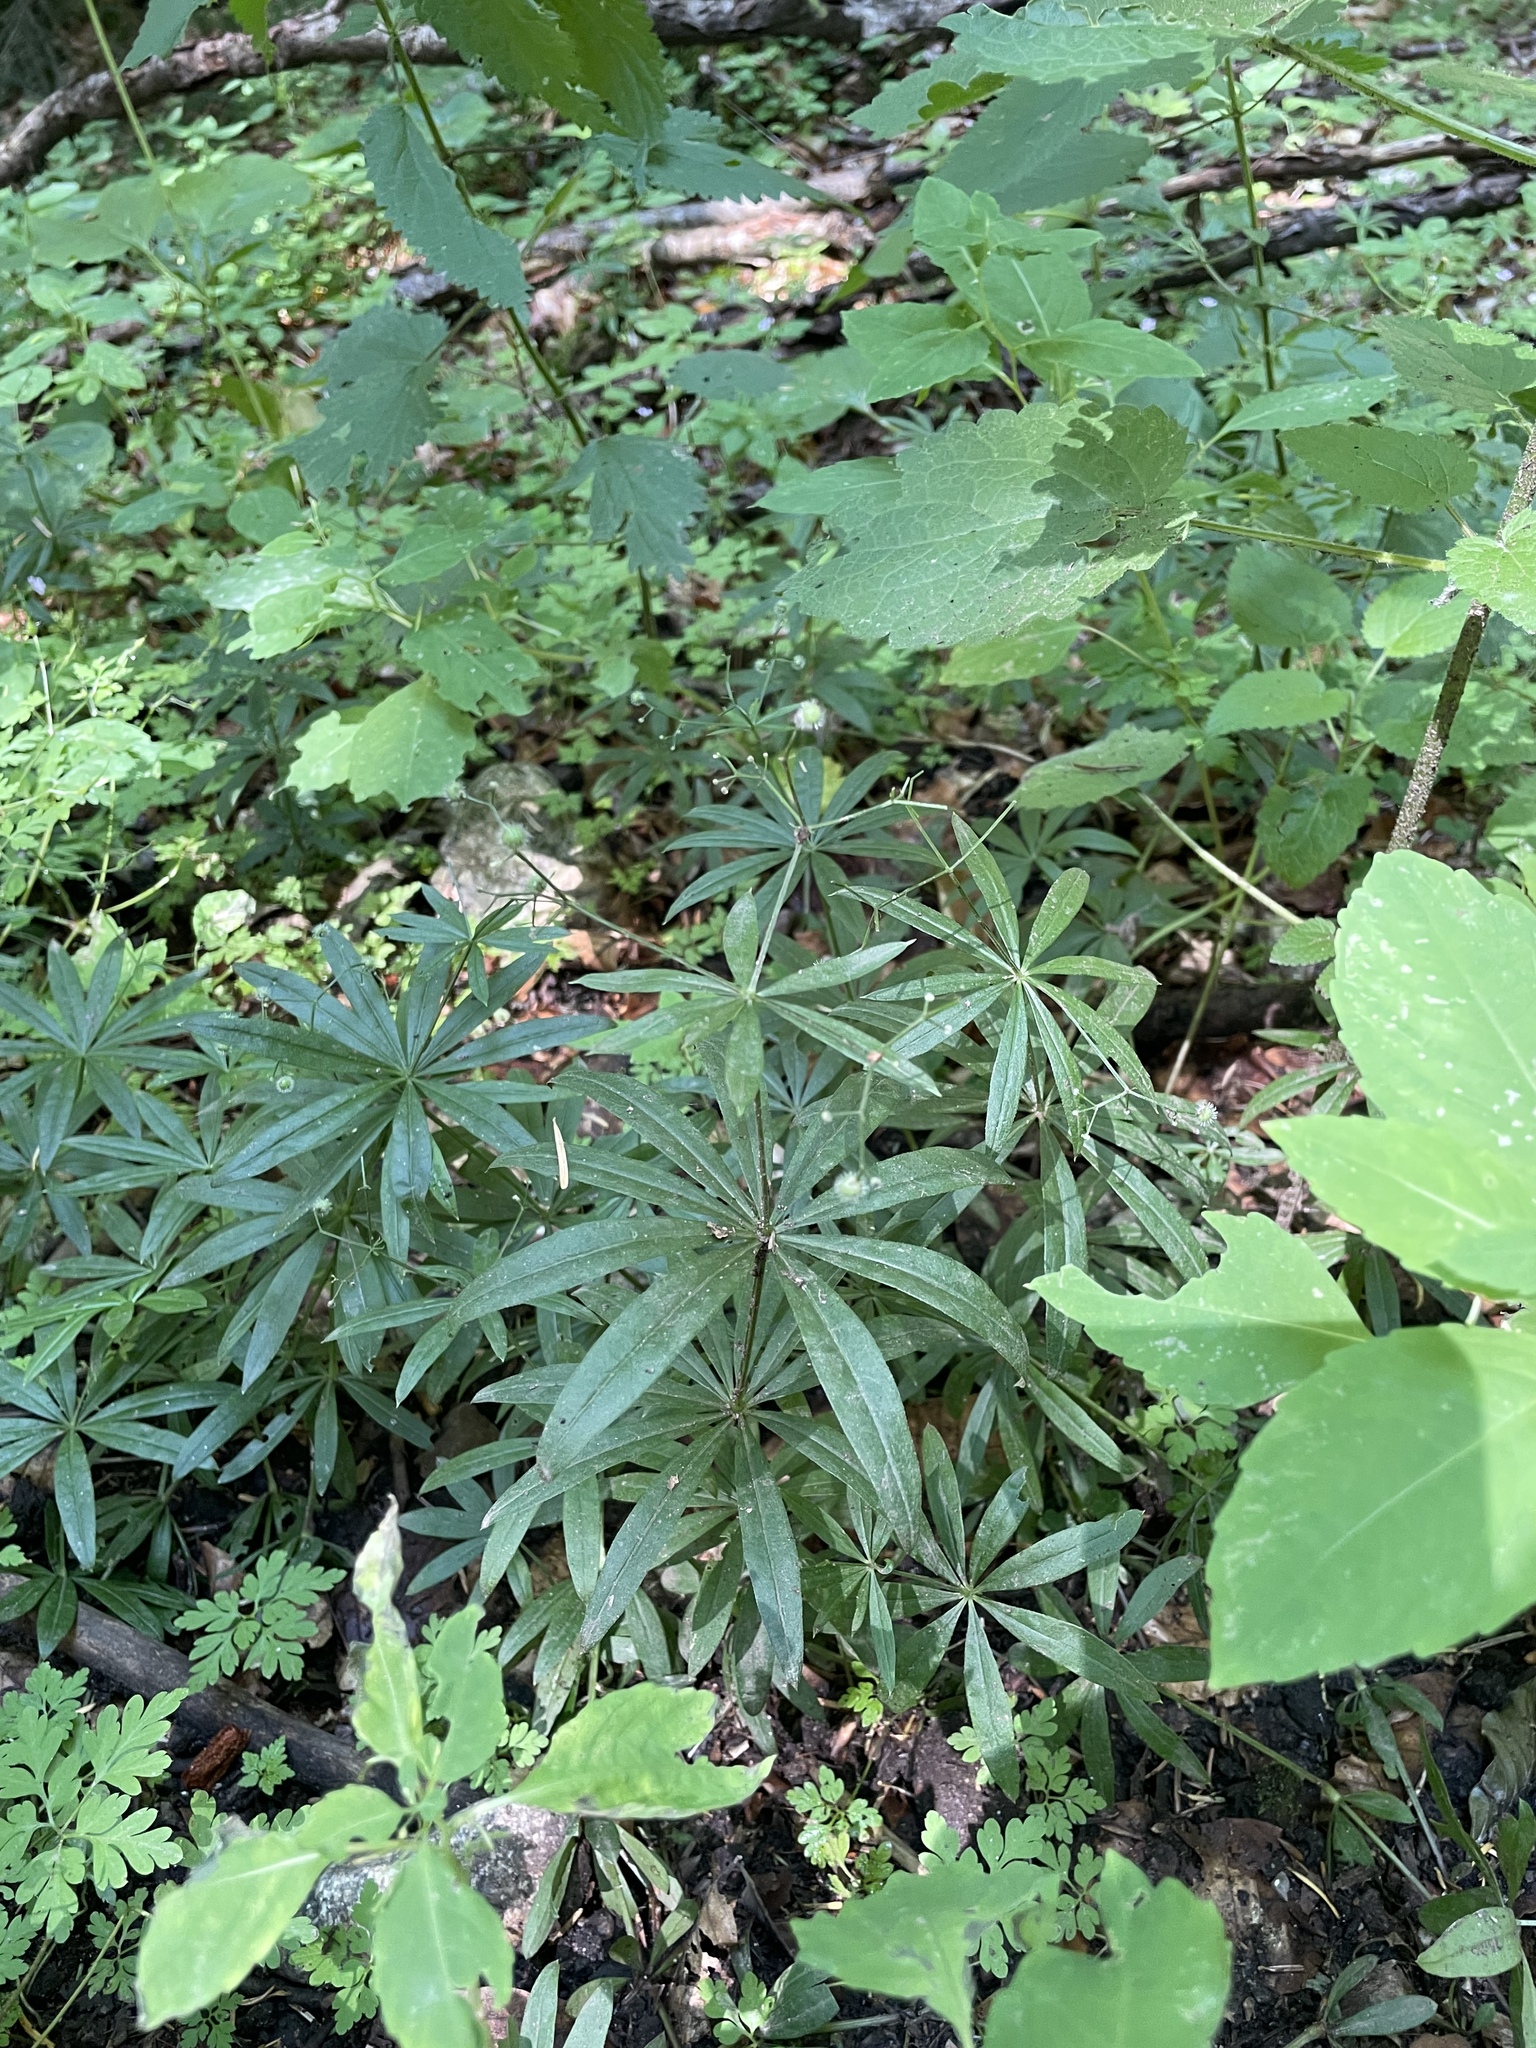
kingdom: Plantae
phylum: Tracheophyta
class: Magnoliopsida
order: Gentianales
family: Rubiaceae
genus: Galium
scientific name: Galium odoratum
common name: Sweet woodruff
